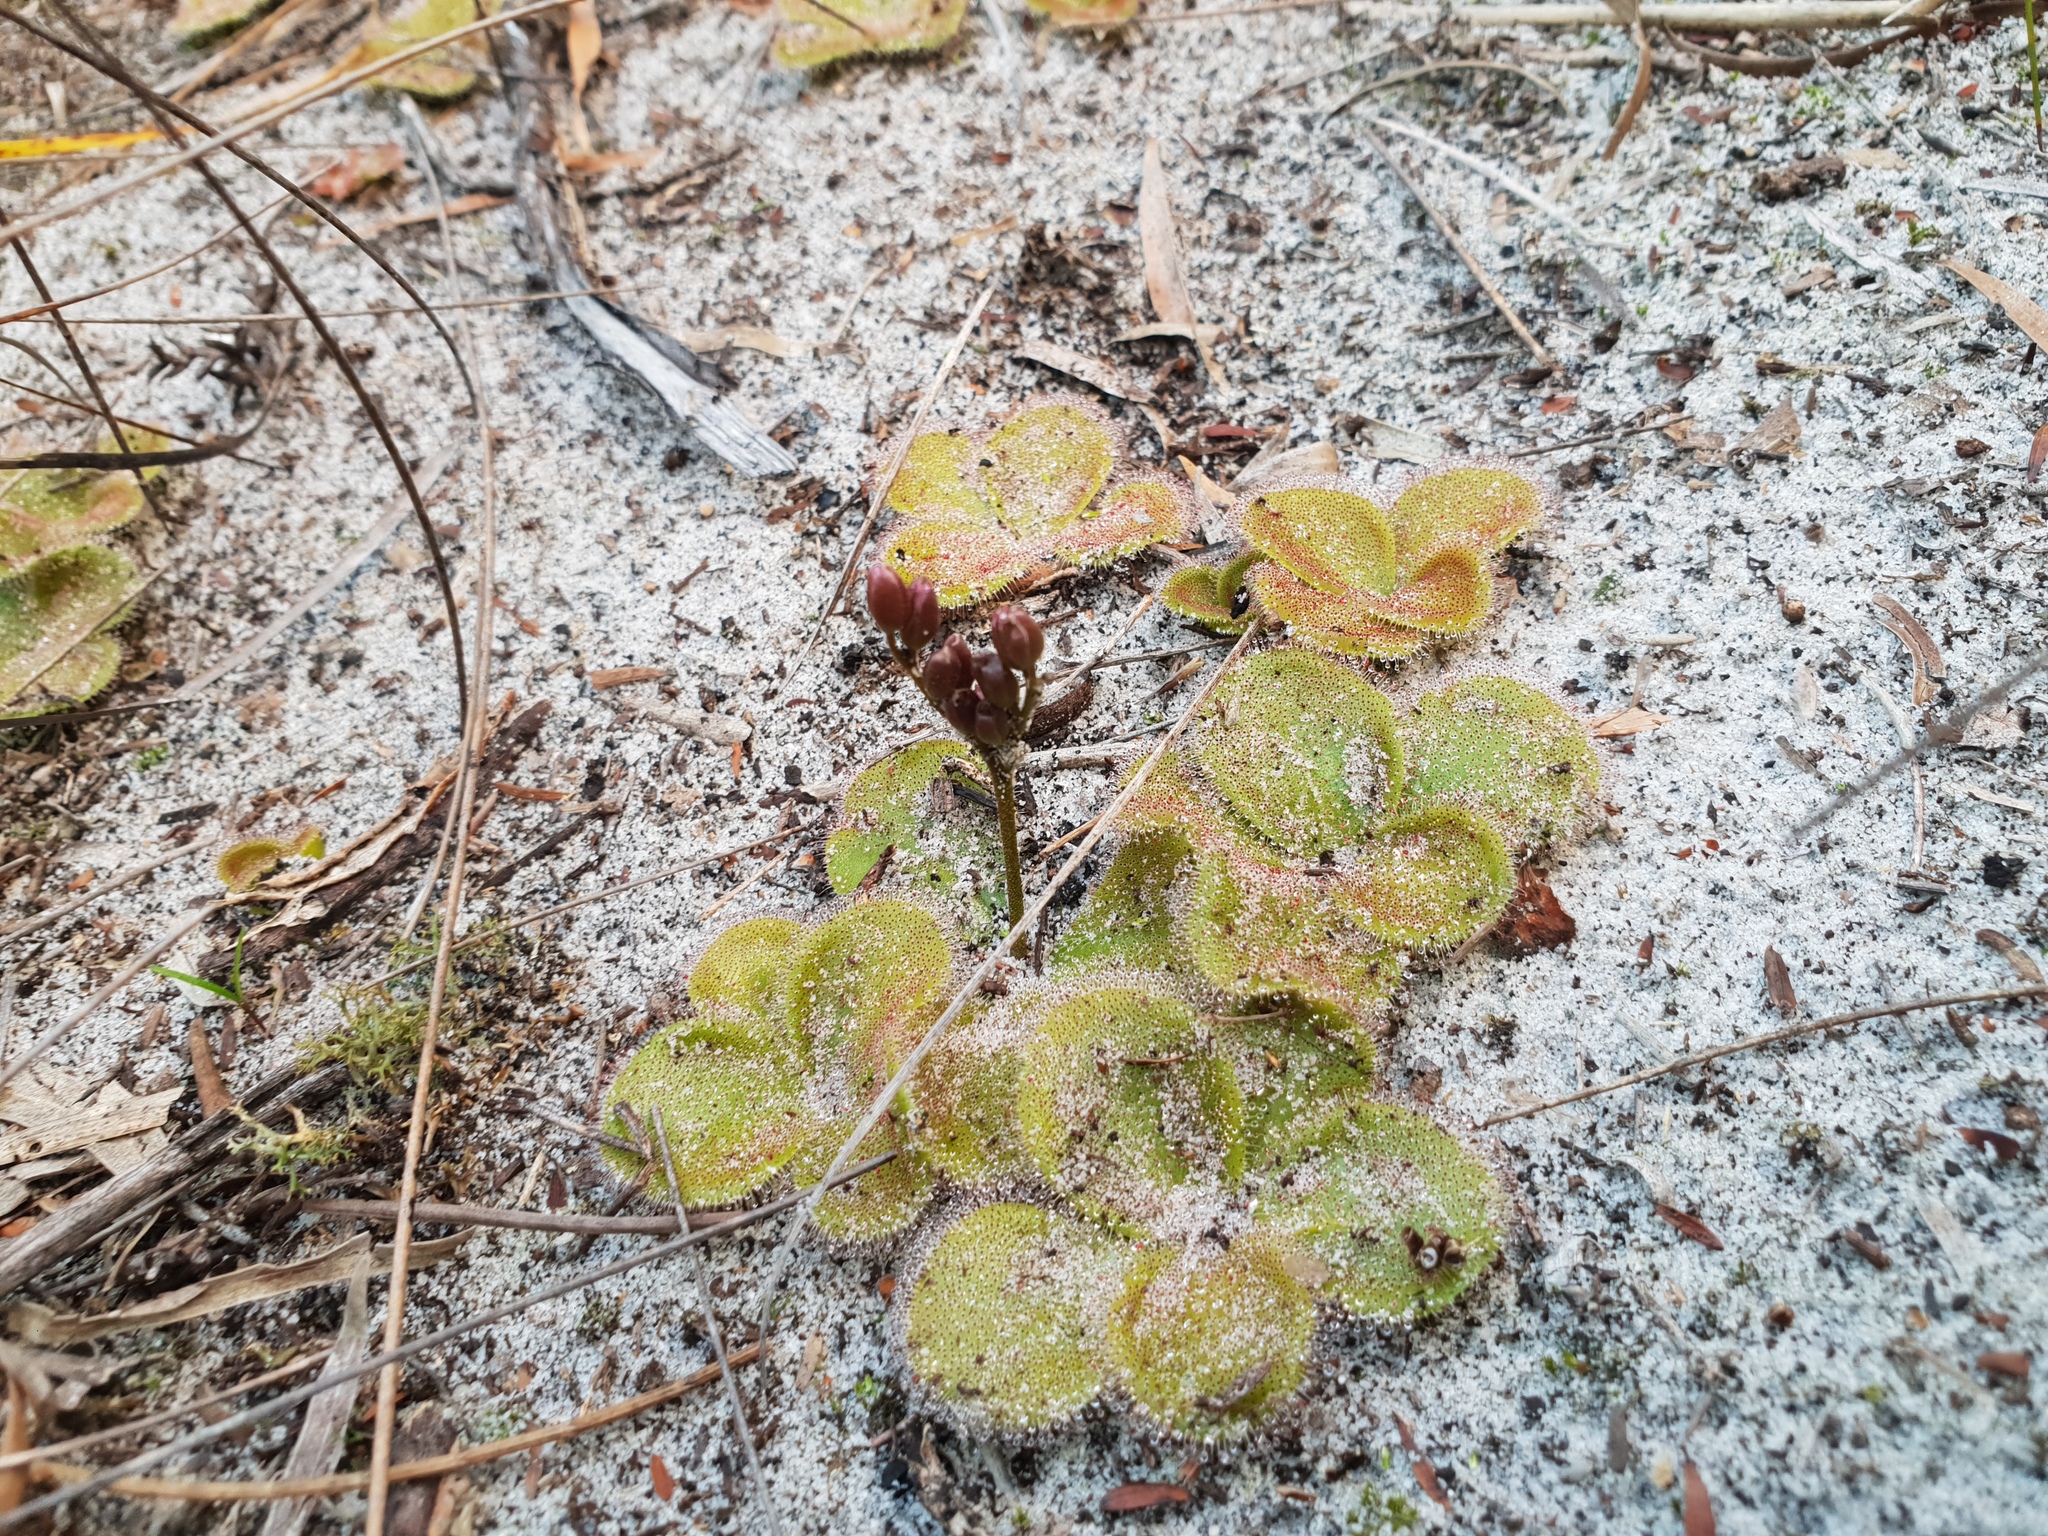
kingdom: Plantae
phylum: Tracheophyta
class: Magnoliopsida
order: Caryophyllales
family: Droseraceae
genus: Drosera
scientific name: Drosera erythrorhiza
